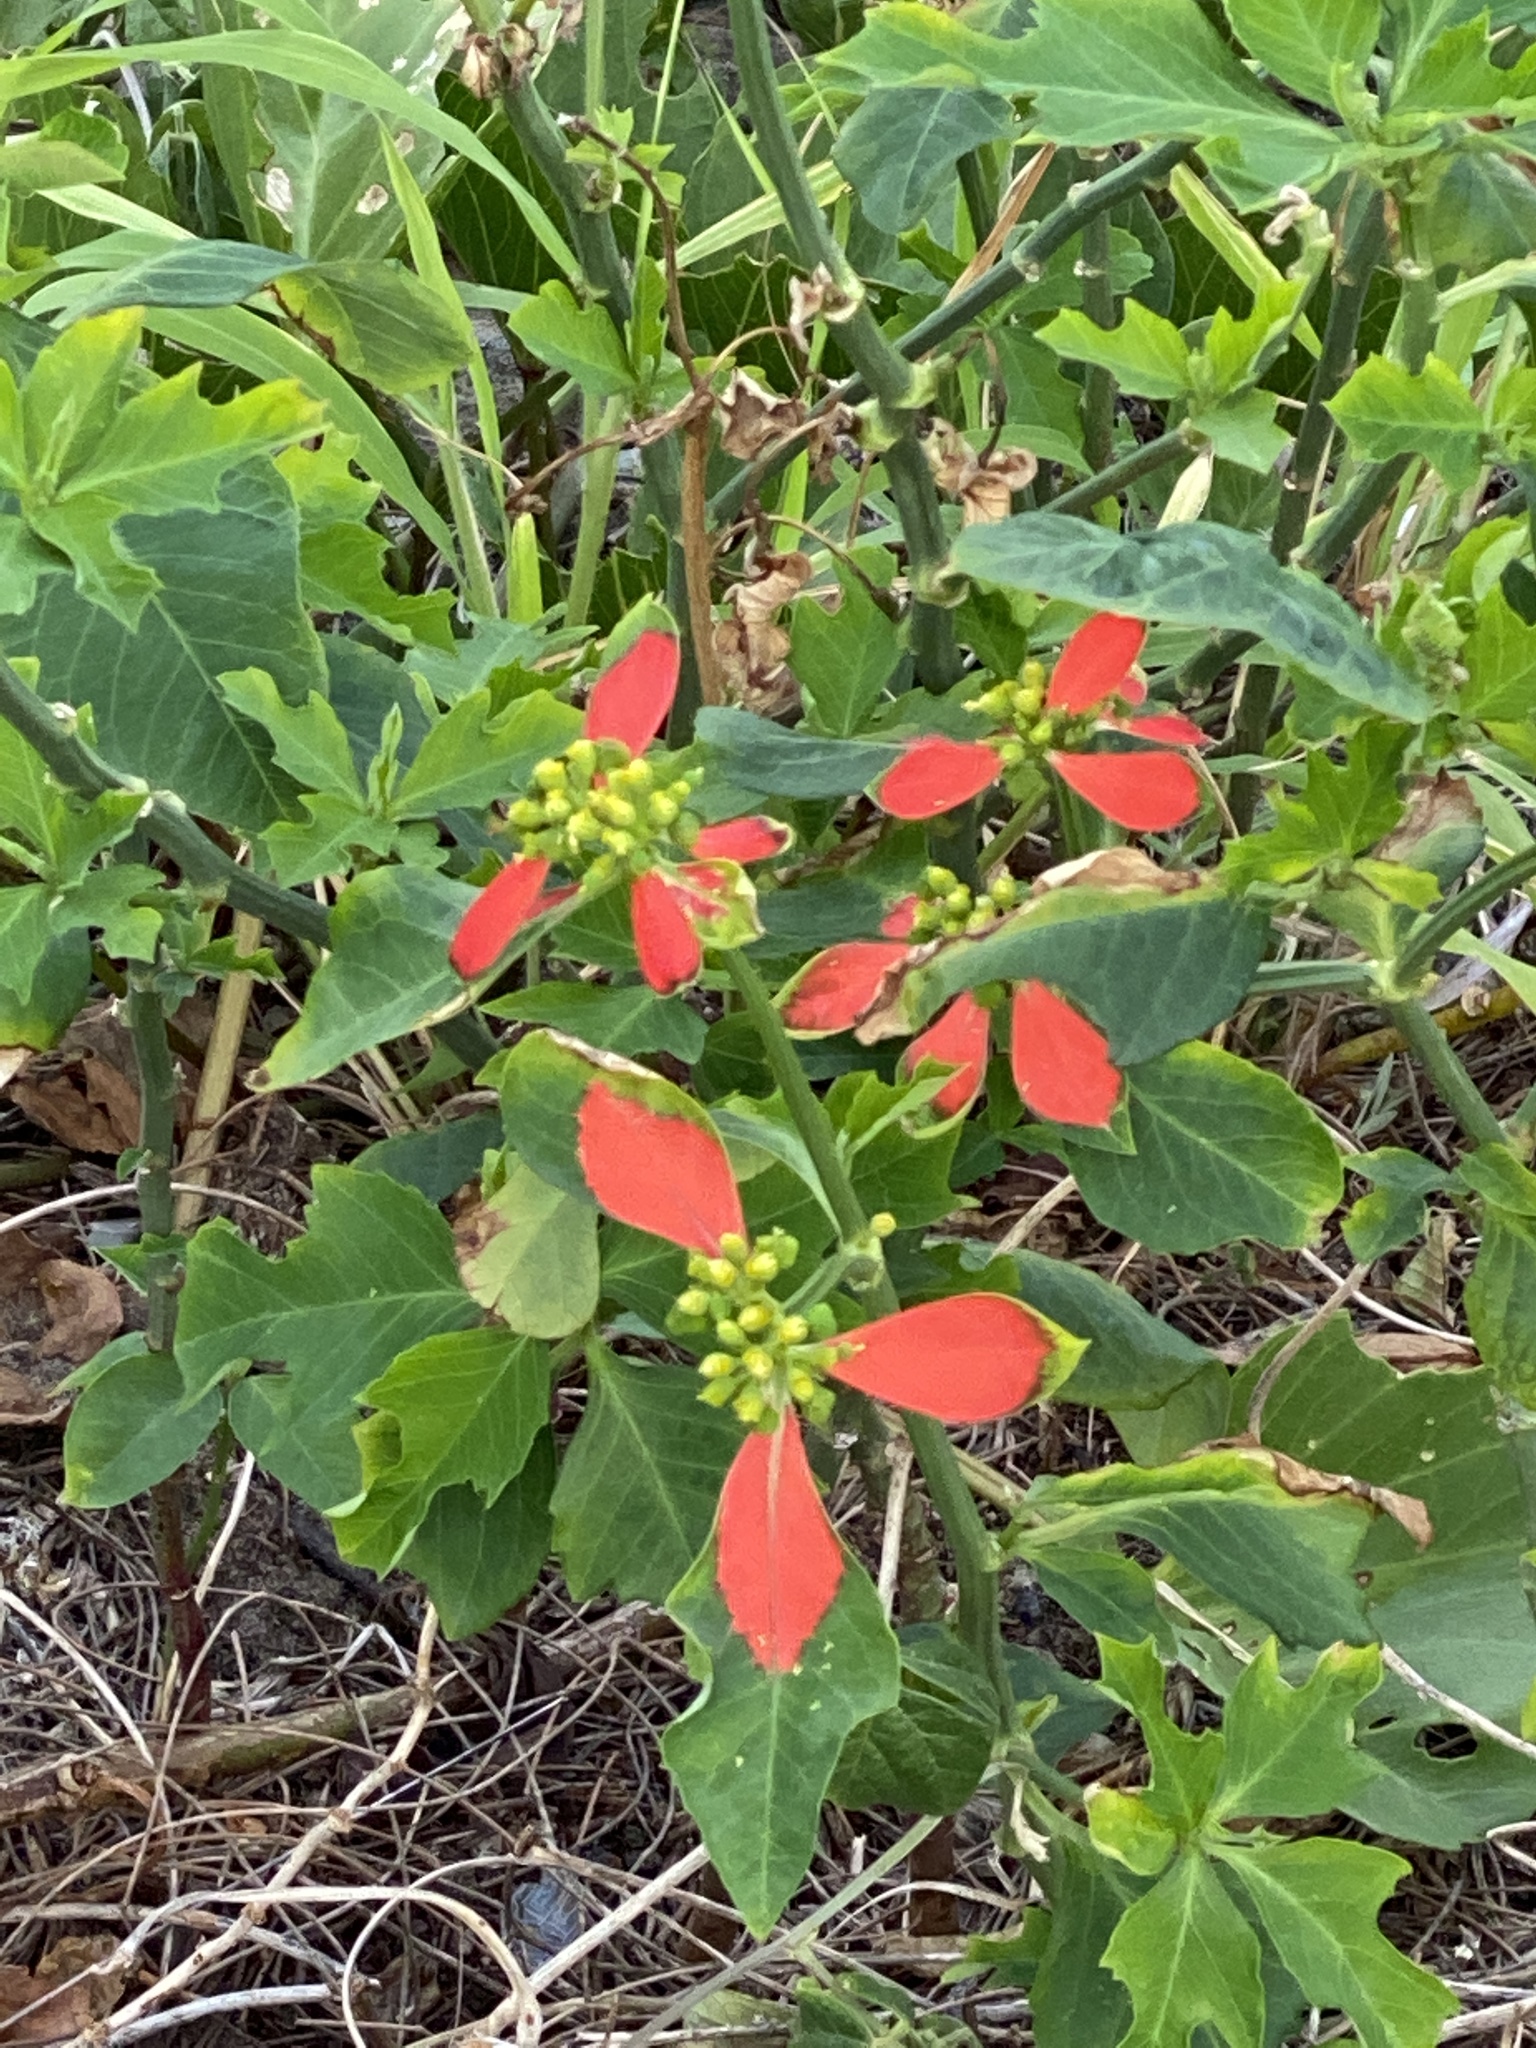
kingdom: Plantae
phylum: Tracheophyta
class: Magnoliopsida
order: Malpighiales
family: Euphorbiaceae
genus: Euphorbia
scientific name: Euphorbia heterophylla
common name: Mexican fireplant
